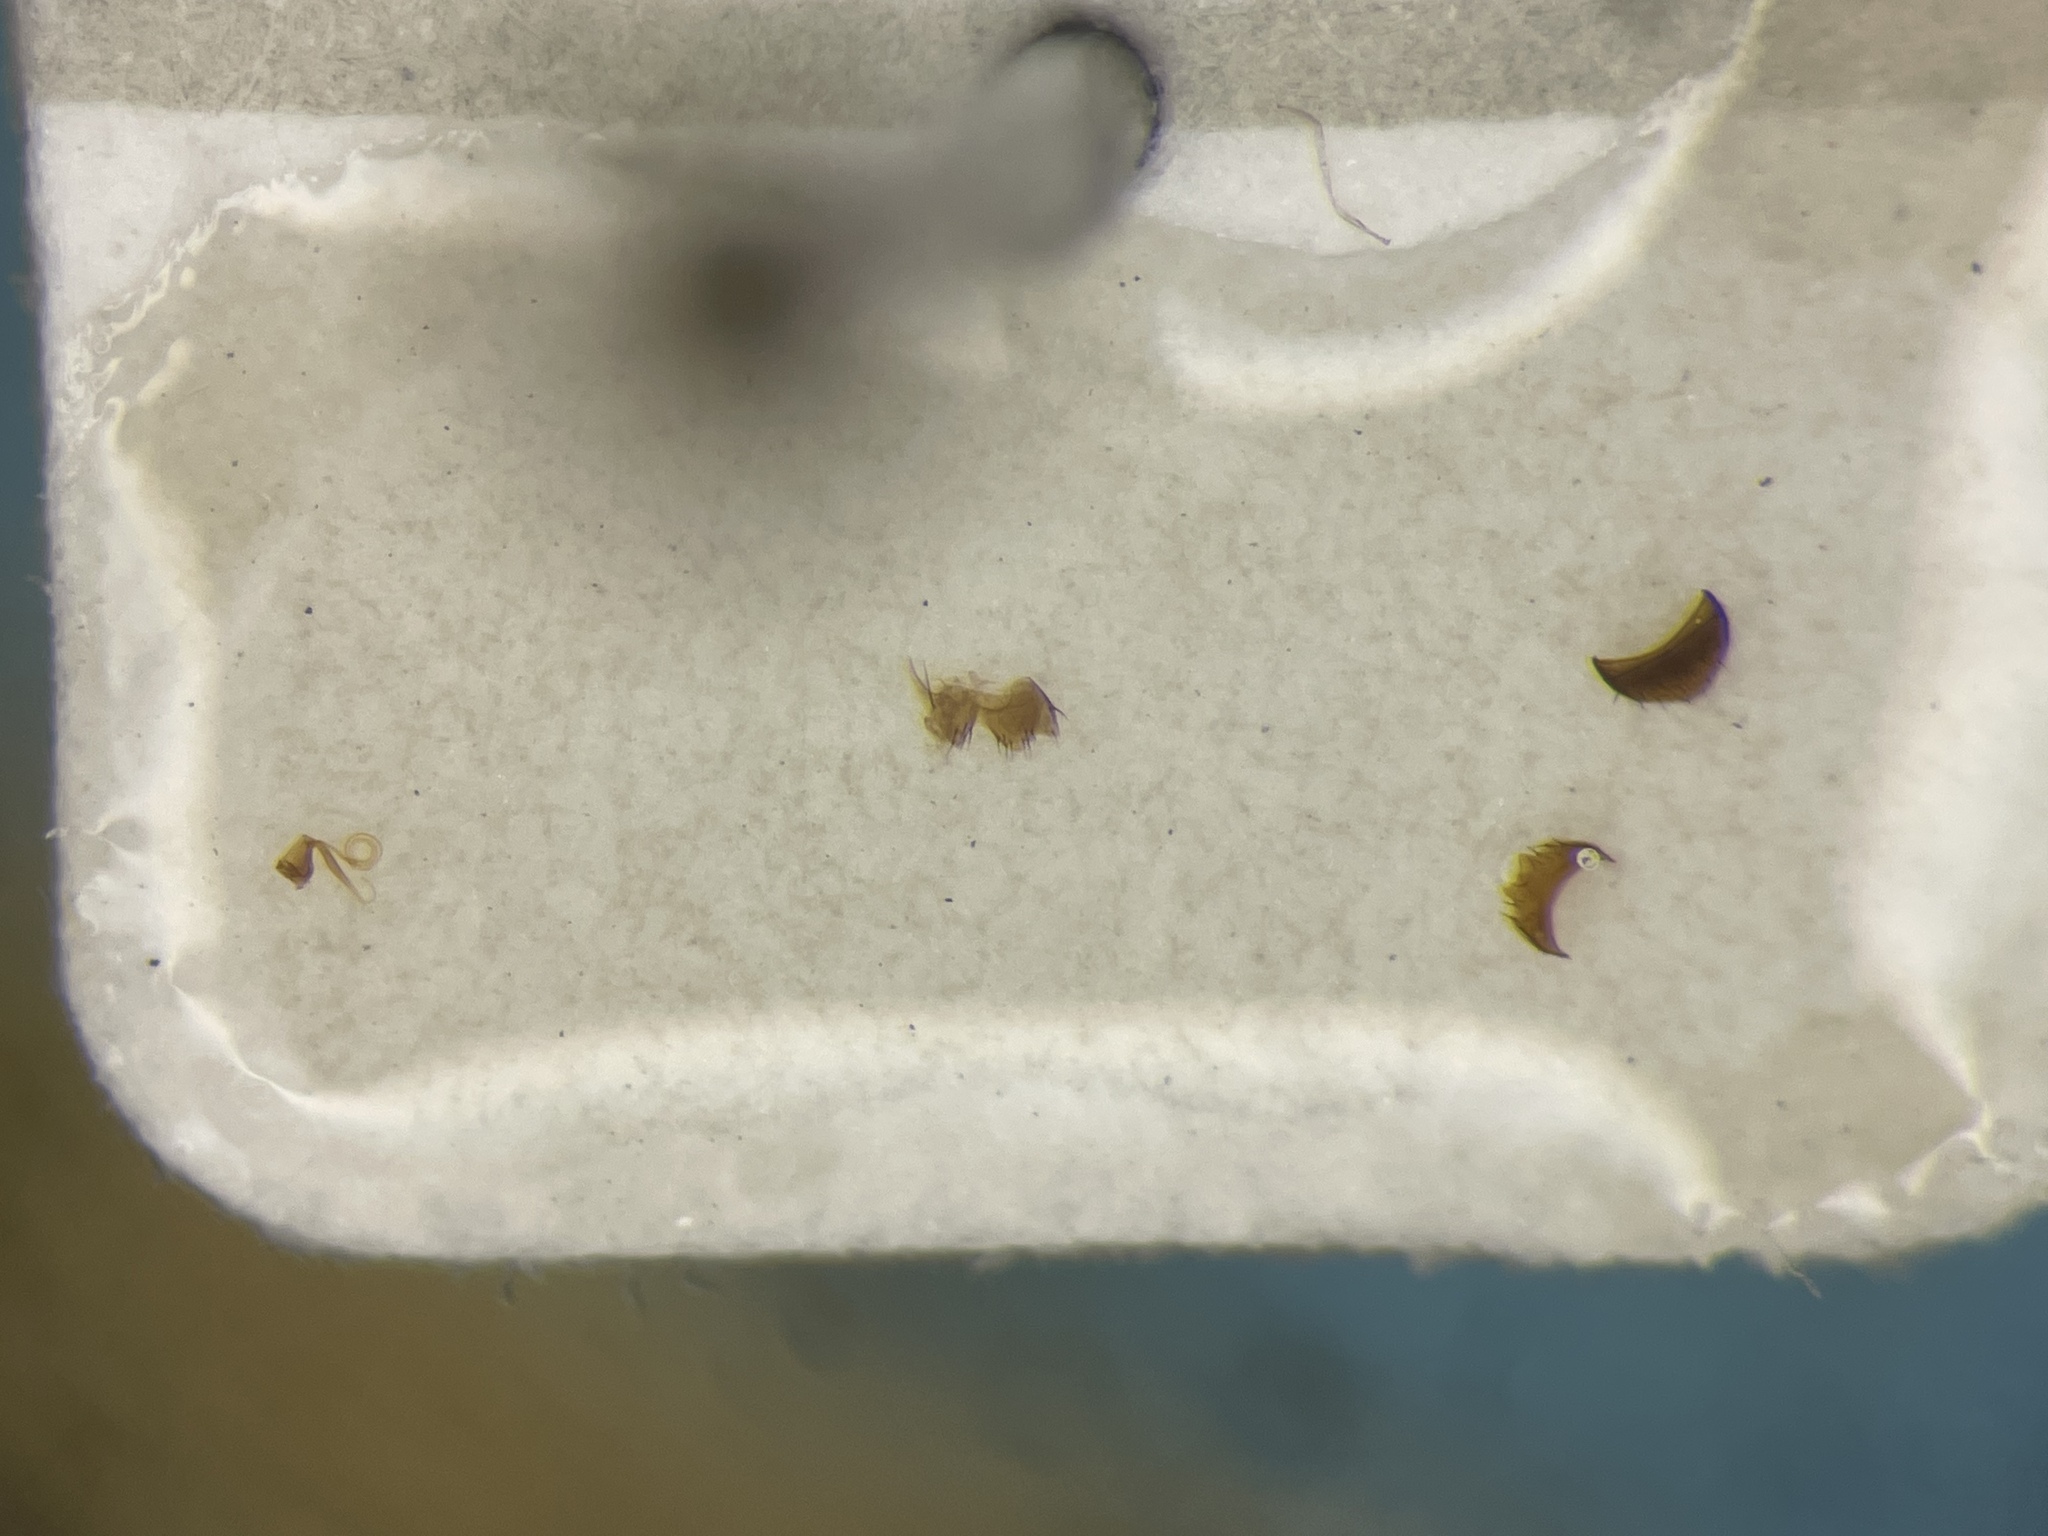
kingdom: Animalia
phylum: Arthropoda
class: Insecta
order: Coleoptera
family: Staphylinidae
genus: Eumicrota
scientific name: Eumicrota socia
